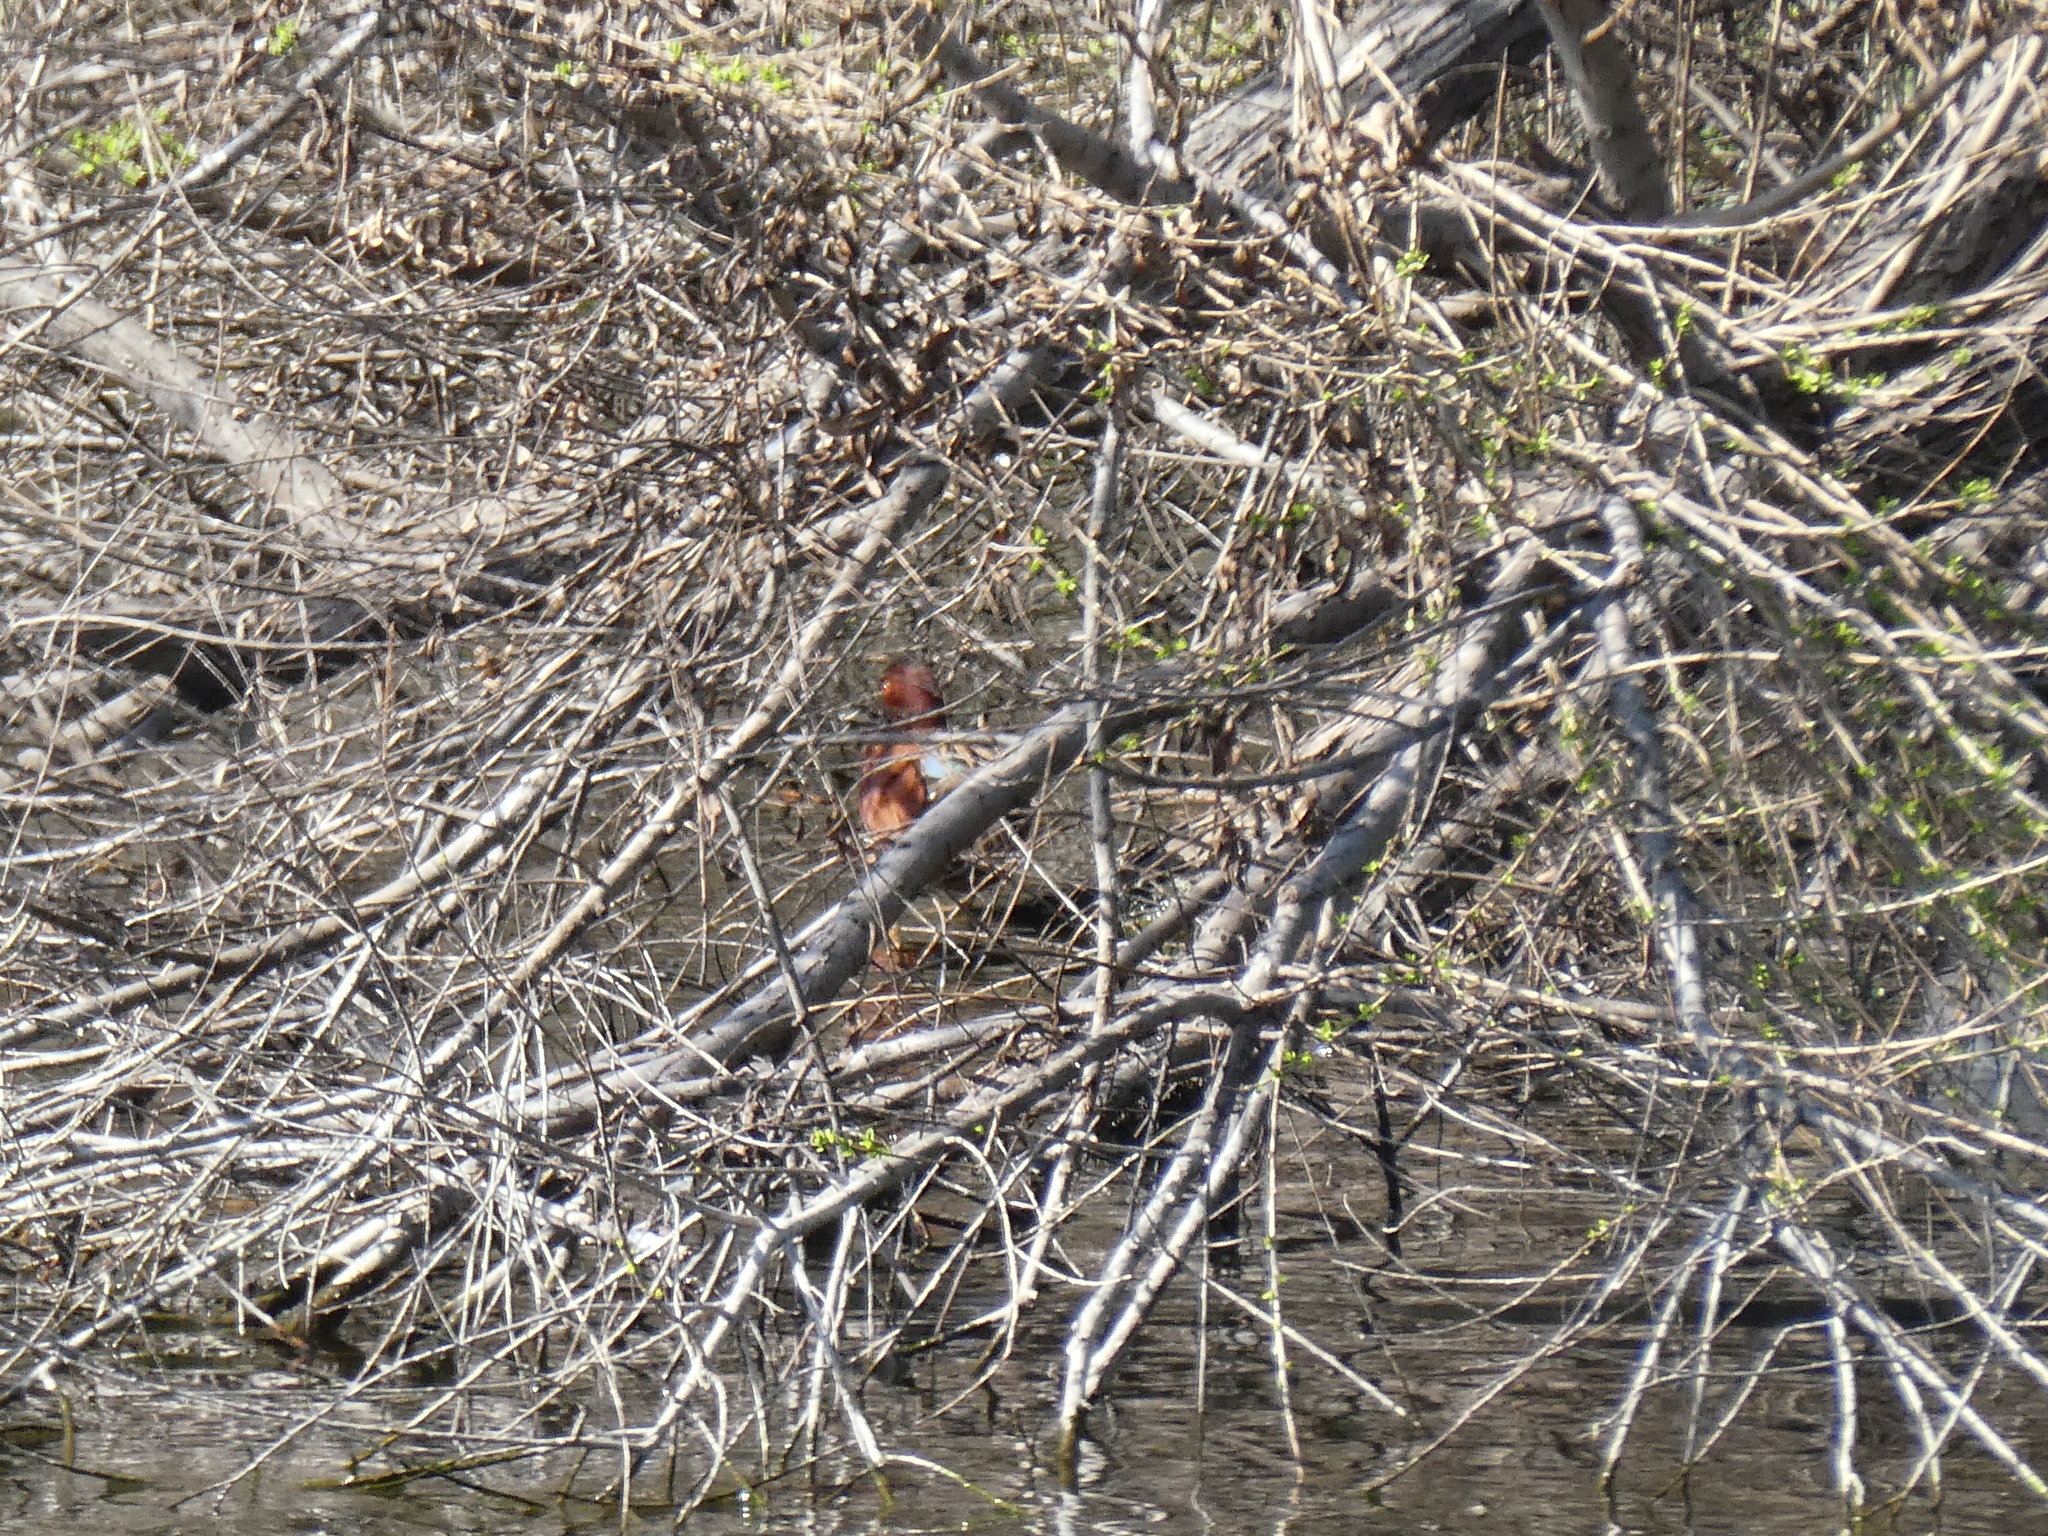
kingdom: Animalia
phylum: Chordata
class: Aves
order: Anseriformes
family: Anatidae
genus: Spatula
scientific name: Spatula cyanoptera
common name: Cinnamon teal
